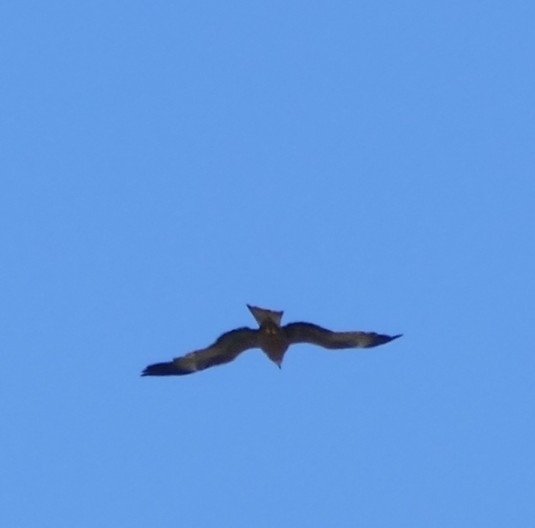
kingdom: Animalia
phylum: Chordata
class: Aves
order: Accipitriformes
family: Accipitridae
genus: Milvus
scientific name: Milvus migrans
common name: Black kite
